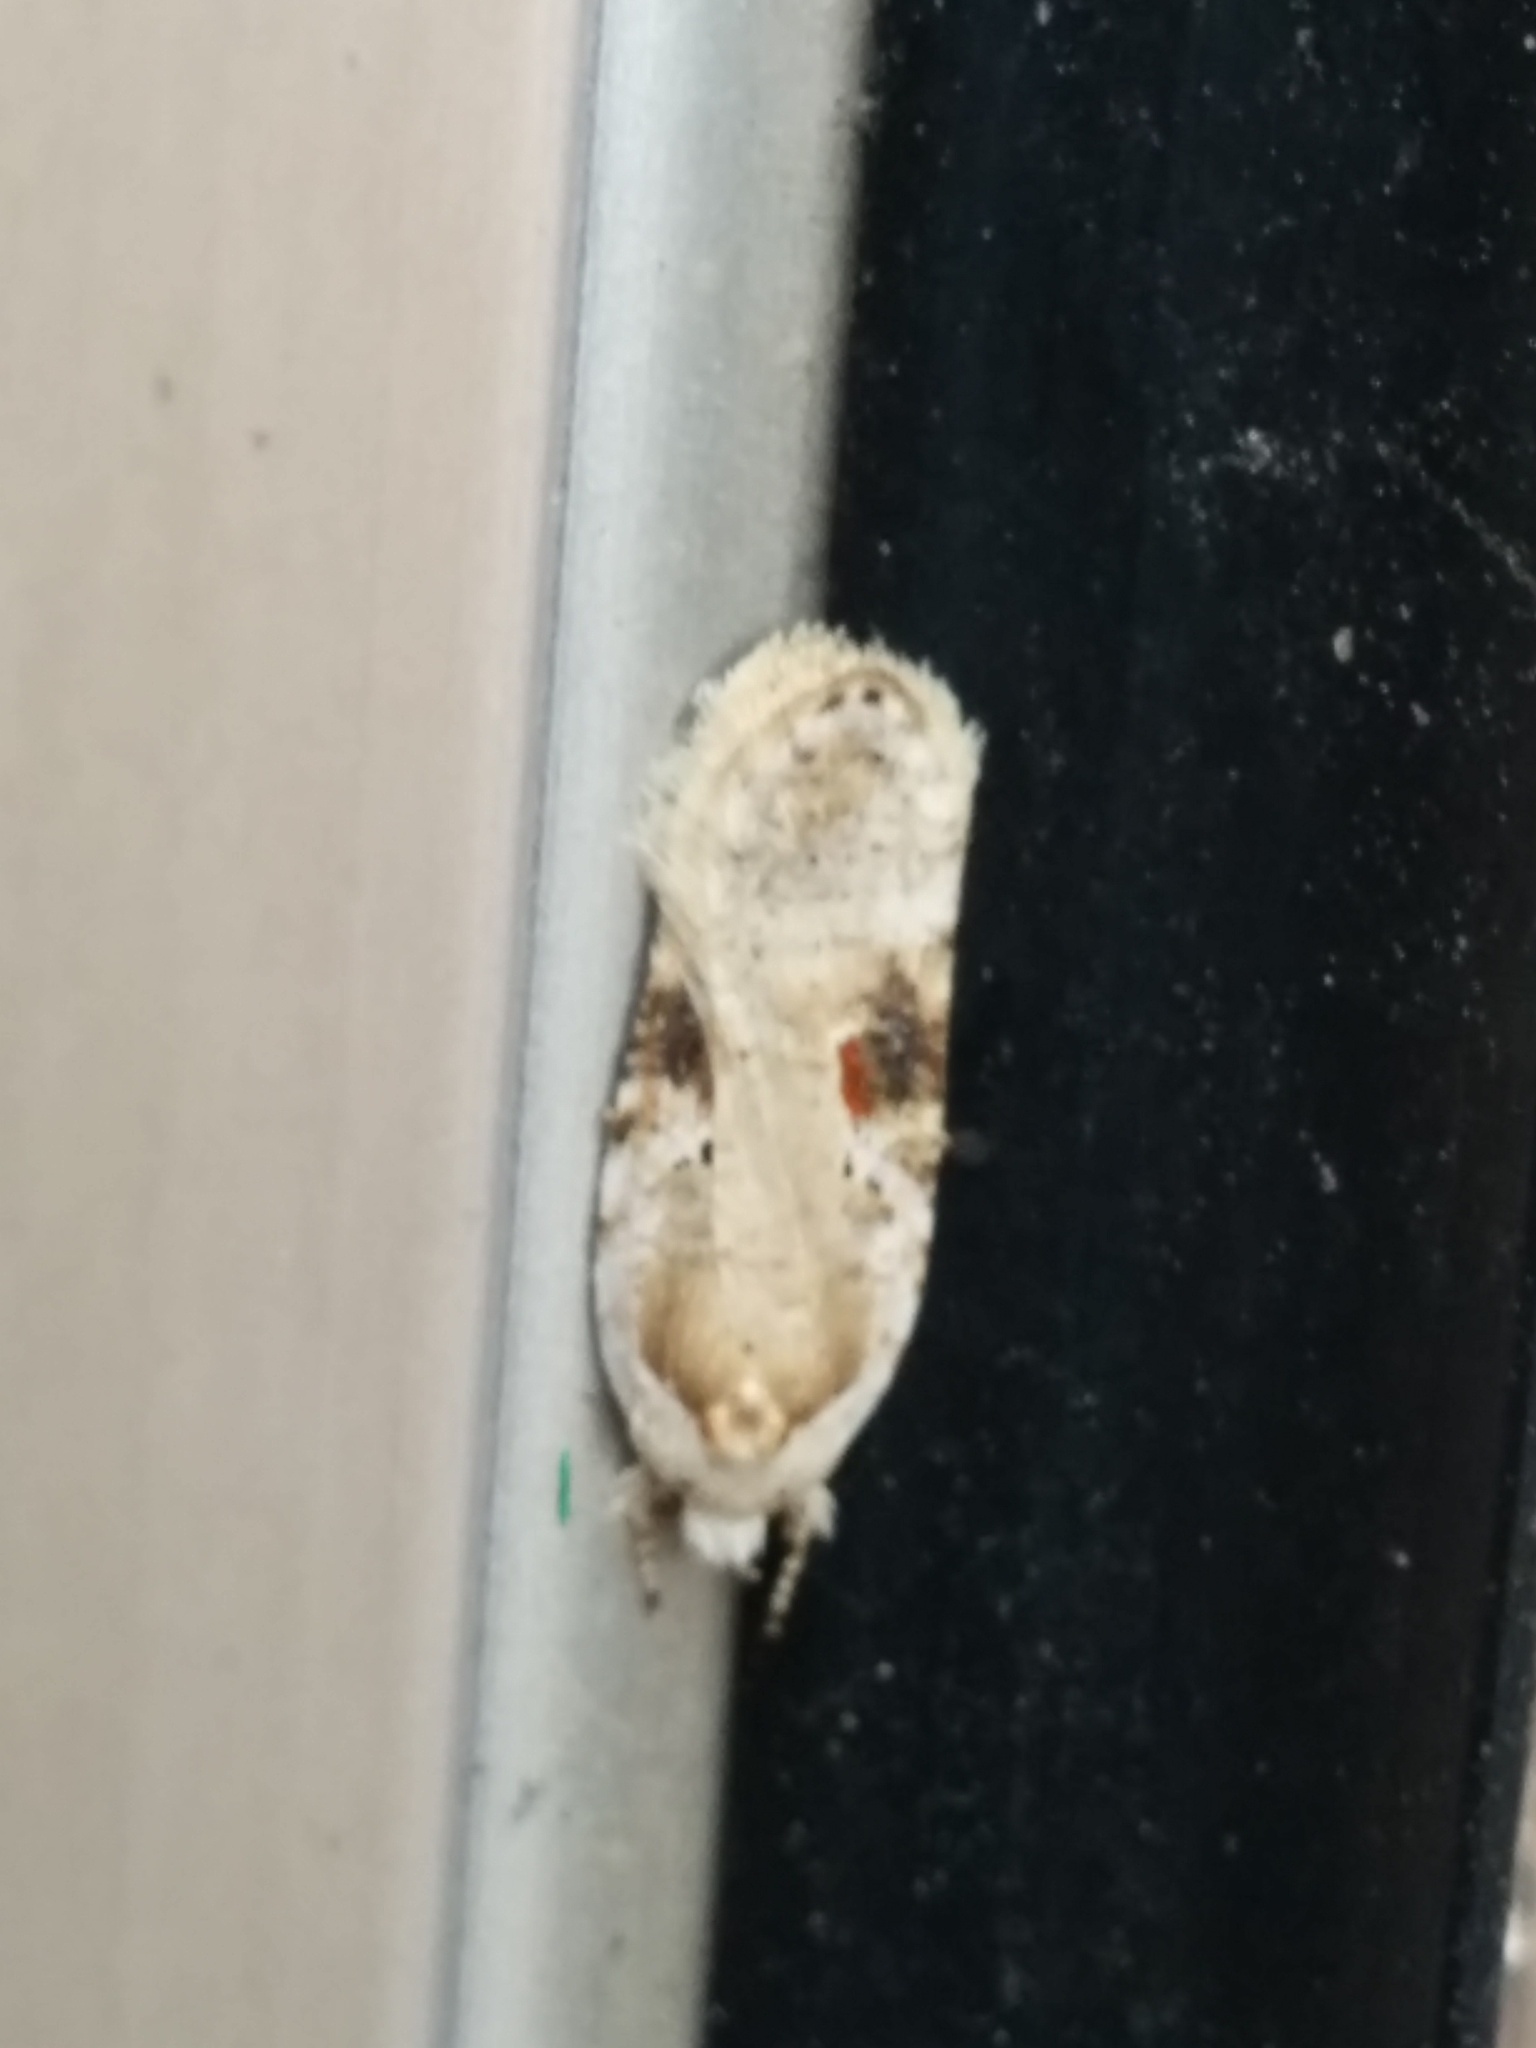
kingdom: Animalia
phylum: Arthropoda
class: Insecta
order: Lepidoptera
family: Depressariidae
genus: Agonopterix
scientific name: Agonopterix alstroemeriana
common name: Moth
